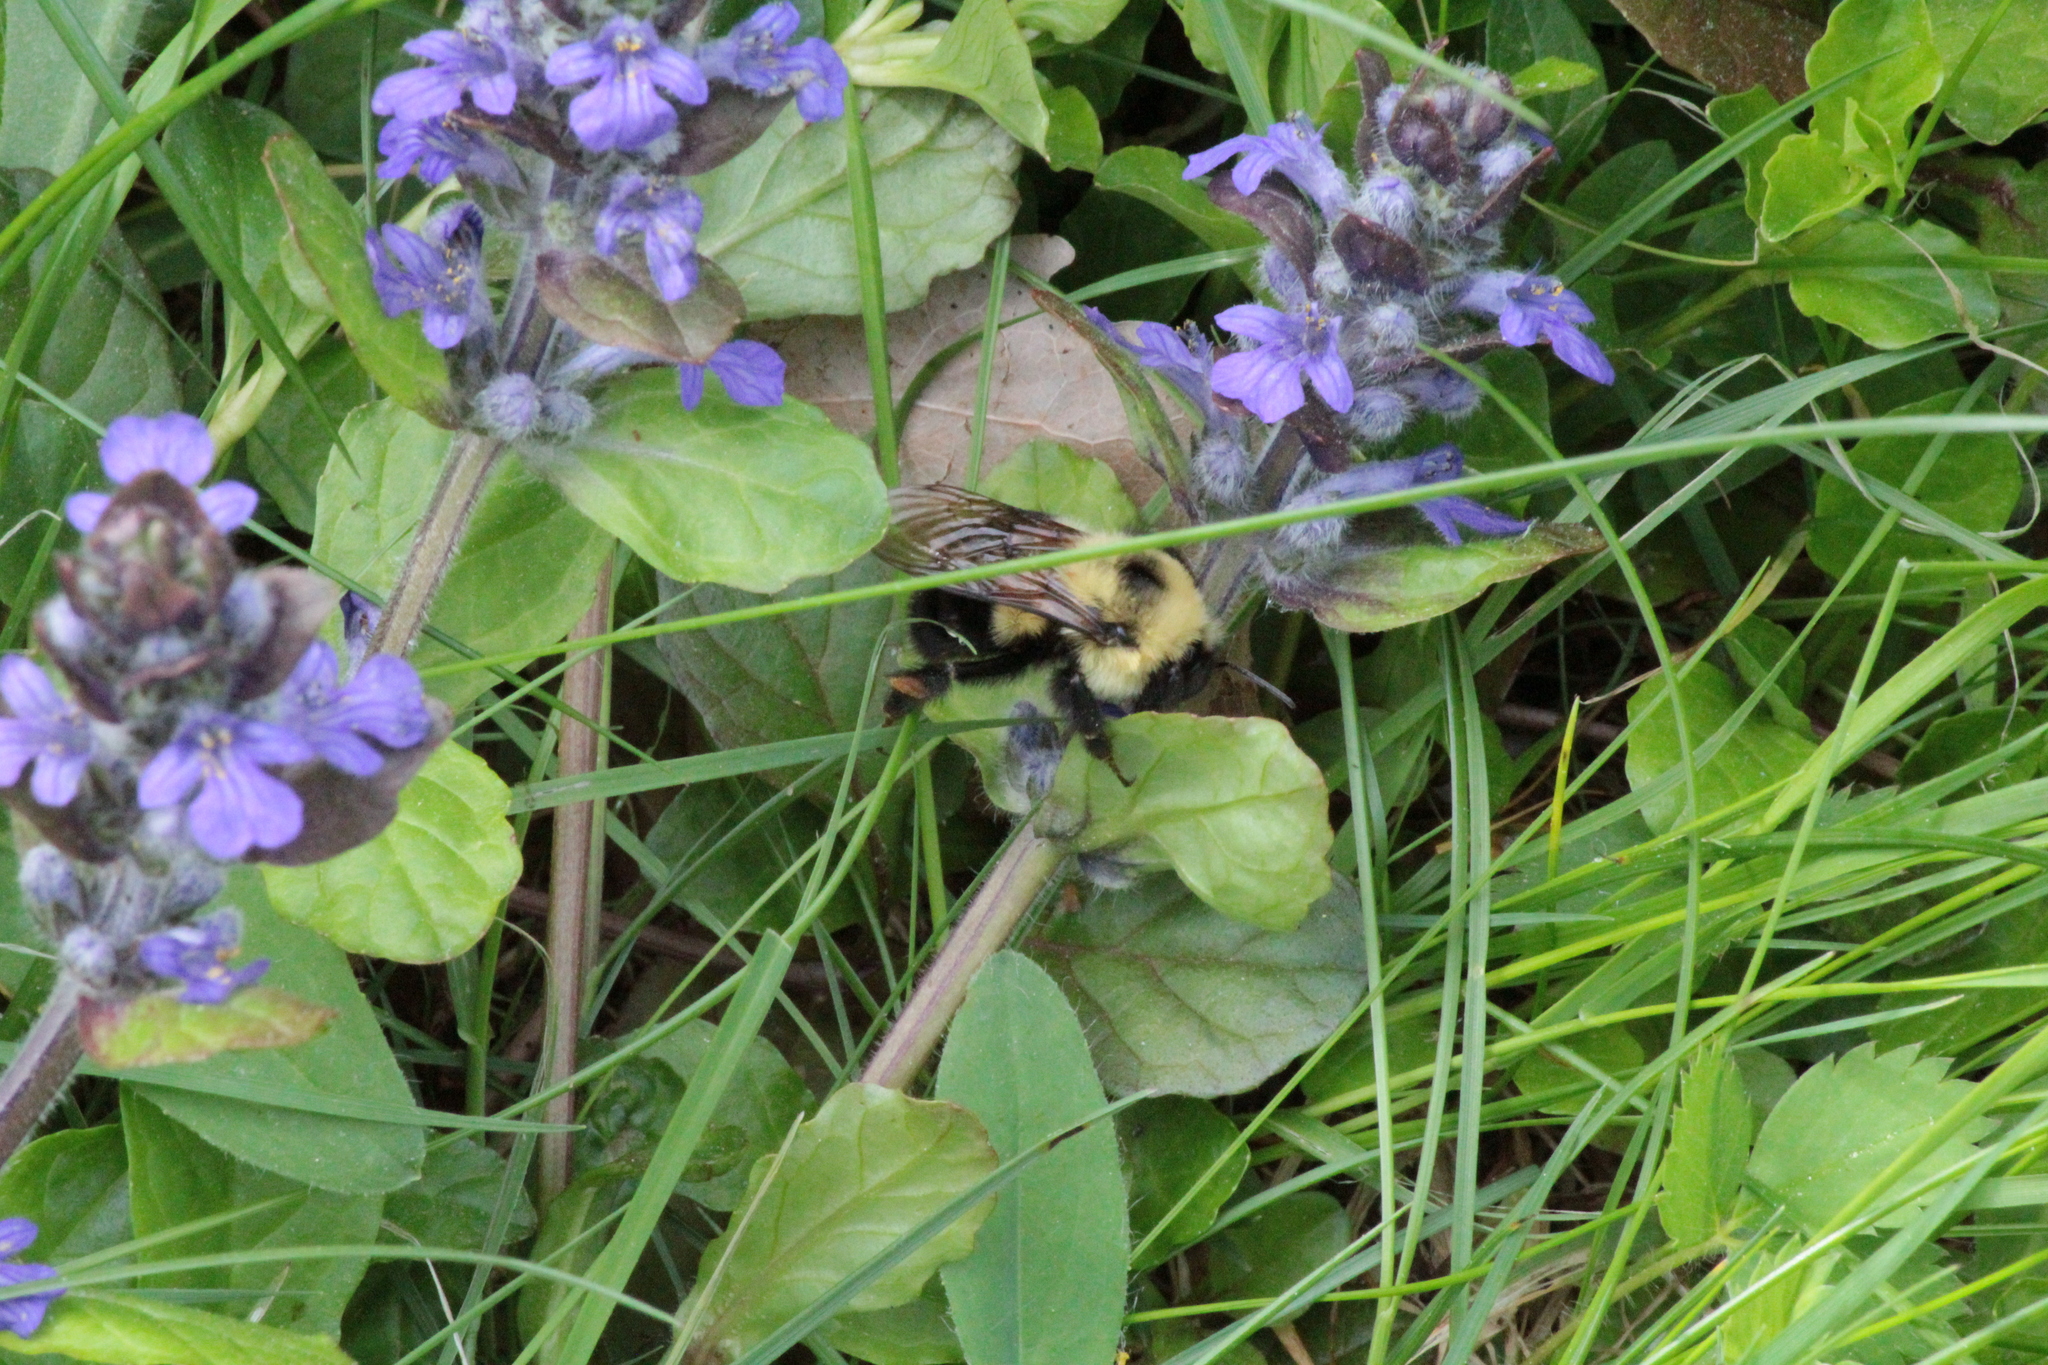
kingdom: Animalia
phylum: Arthropoda
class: Insecta
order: Hymenoptera
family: Apidae
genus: Bombus
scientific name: Bombus bimaculatus
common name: Two-spotted bumble bee
